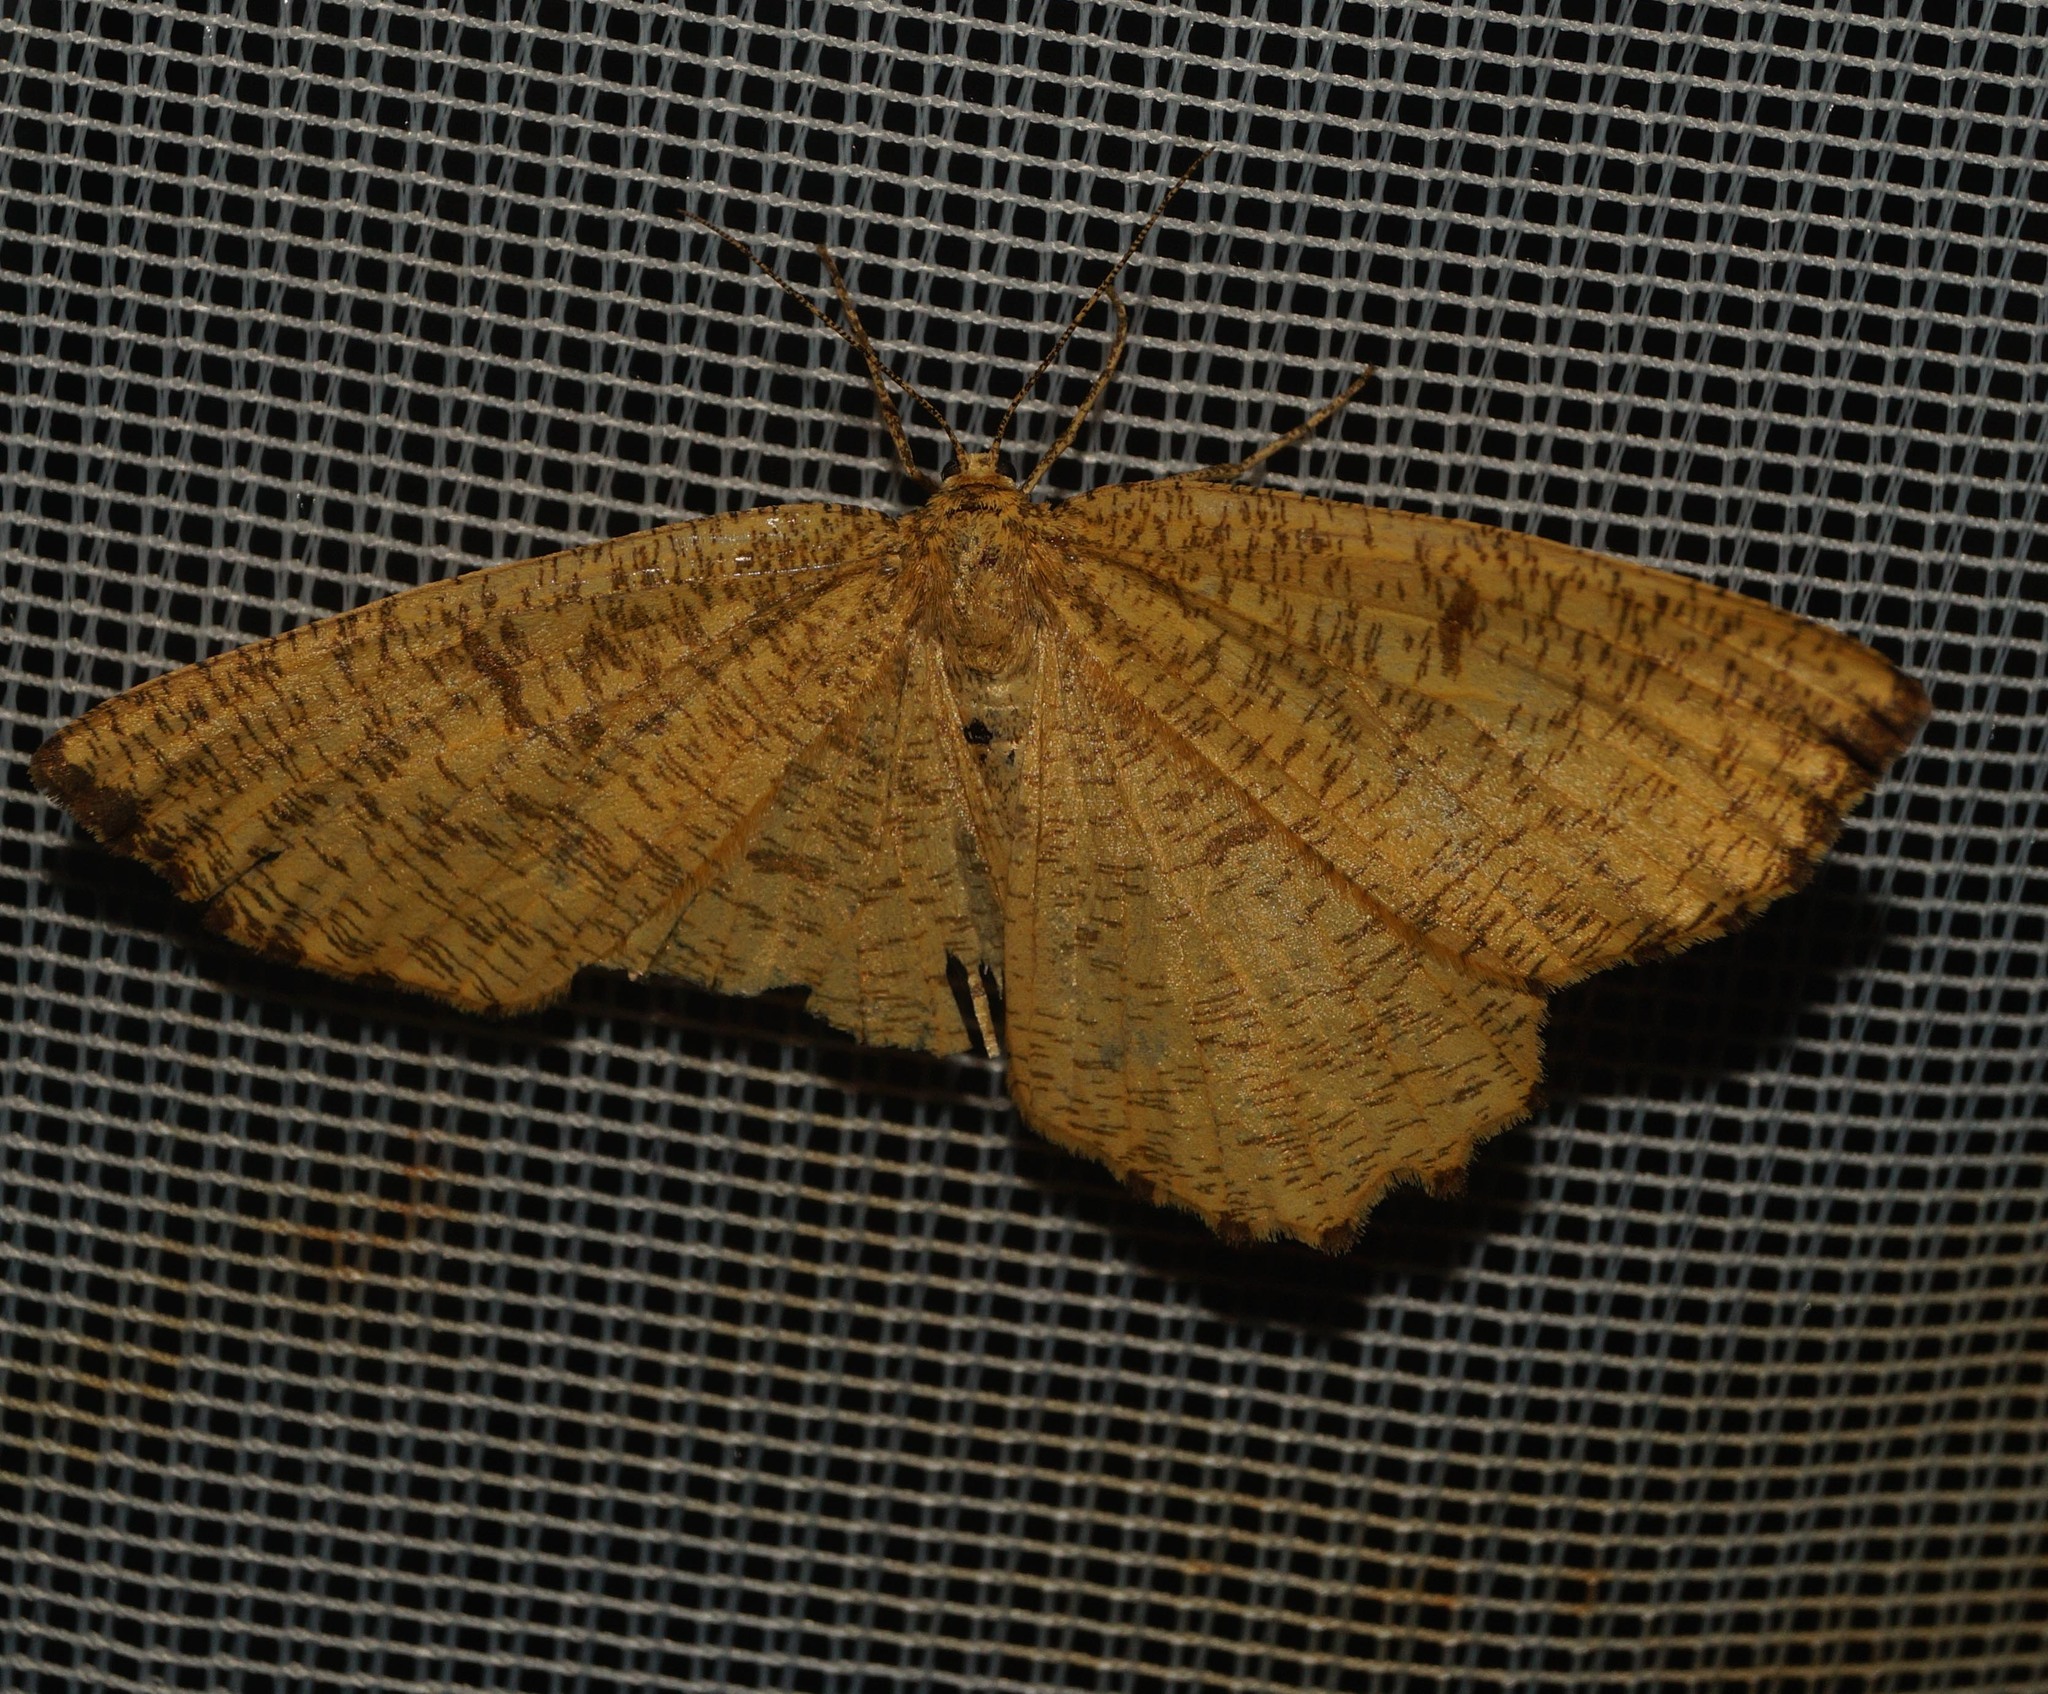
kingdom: Animalia
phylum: Arthropoda
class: Insecta
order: Lepidoptera
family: Geometridae
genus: Angerona
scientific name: Angerona prunaria
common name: Orange moth
